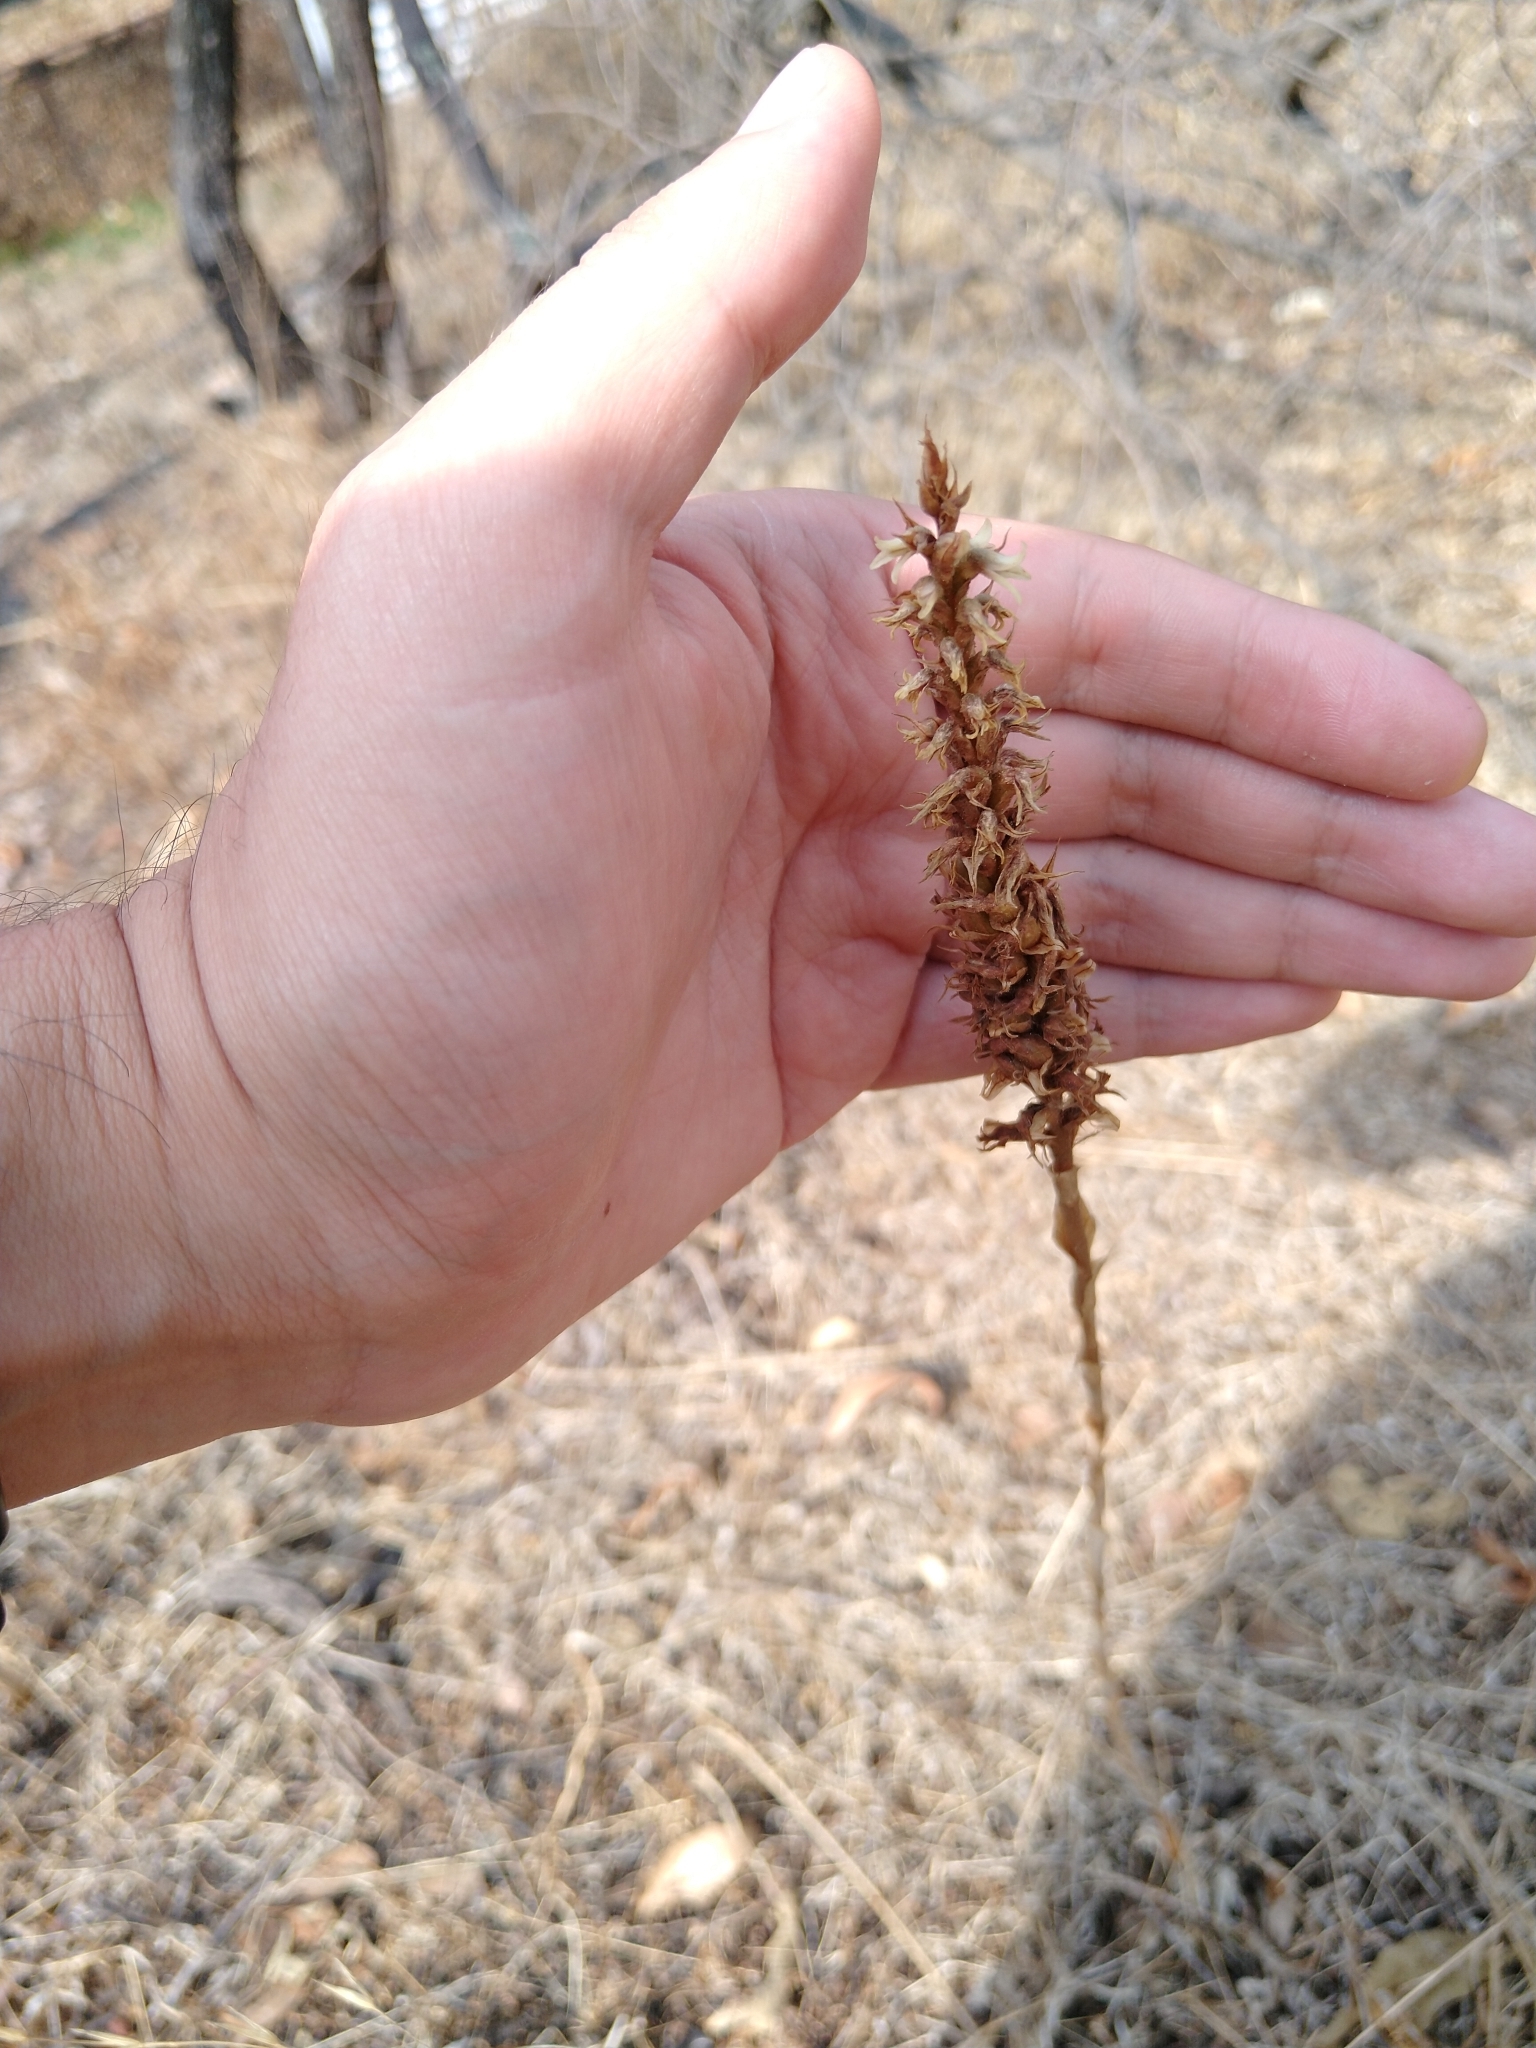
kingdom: Plantae
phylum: Tracheophyta
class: Liliopsida
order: Asparagales
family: Orchidaceae
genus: Aulosepalum
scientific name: Aulosepalum pyramidale
